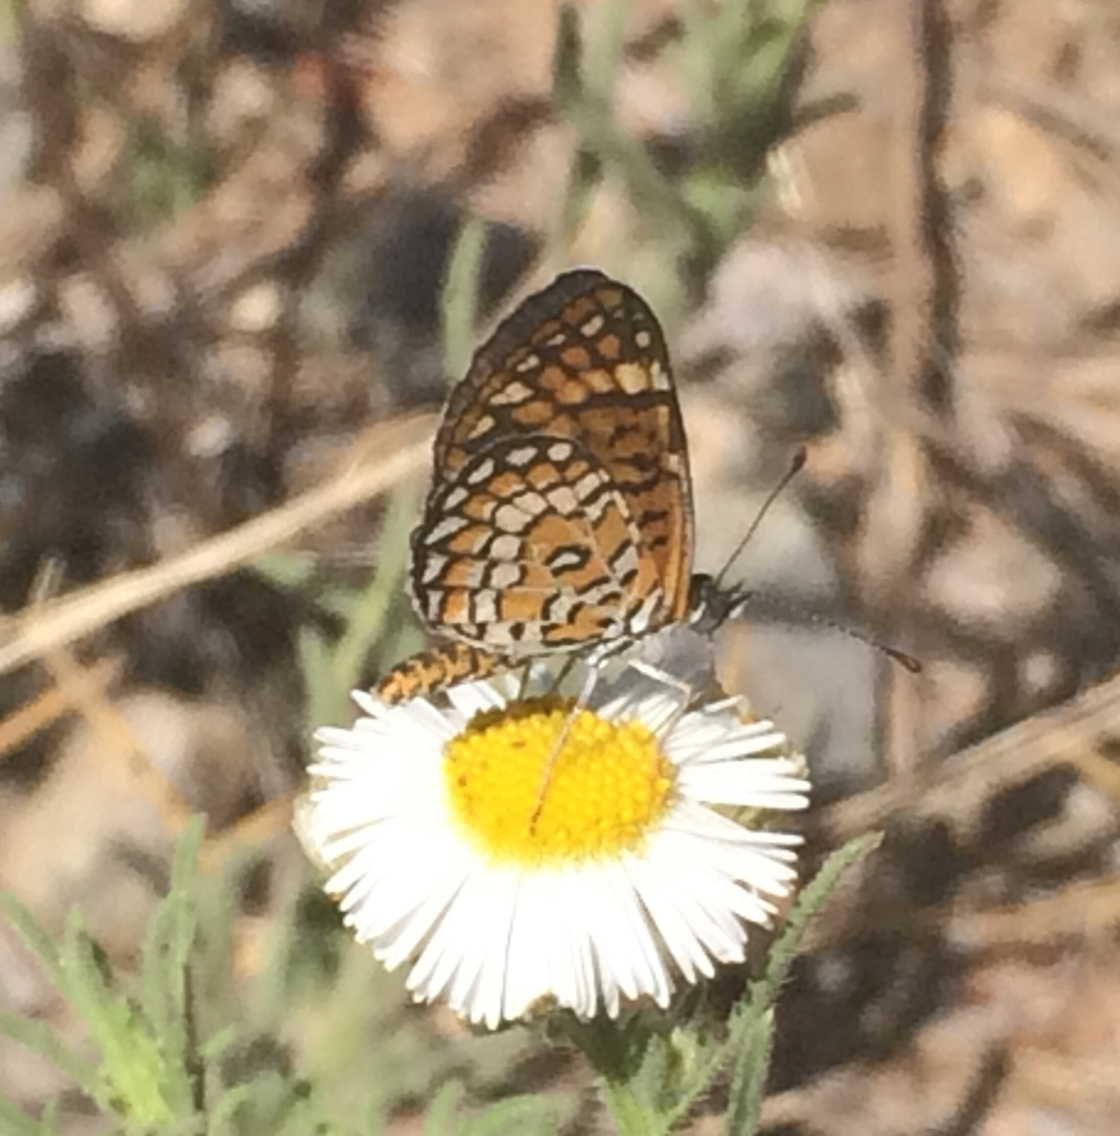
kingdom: Animalia
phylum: Arthropoda
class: Insecta
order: Lepidoptera
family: Nymphalidae
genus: Dymasia
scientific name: Dymasia dymas
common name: Tiny checkerspot
